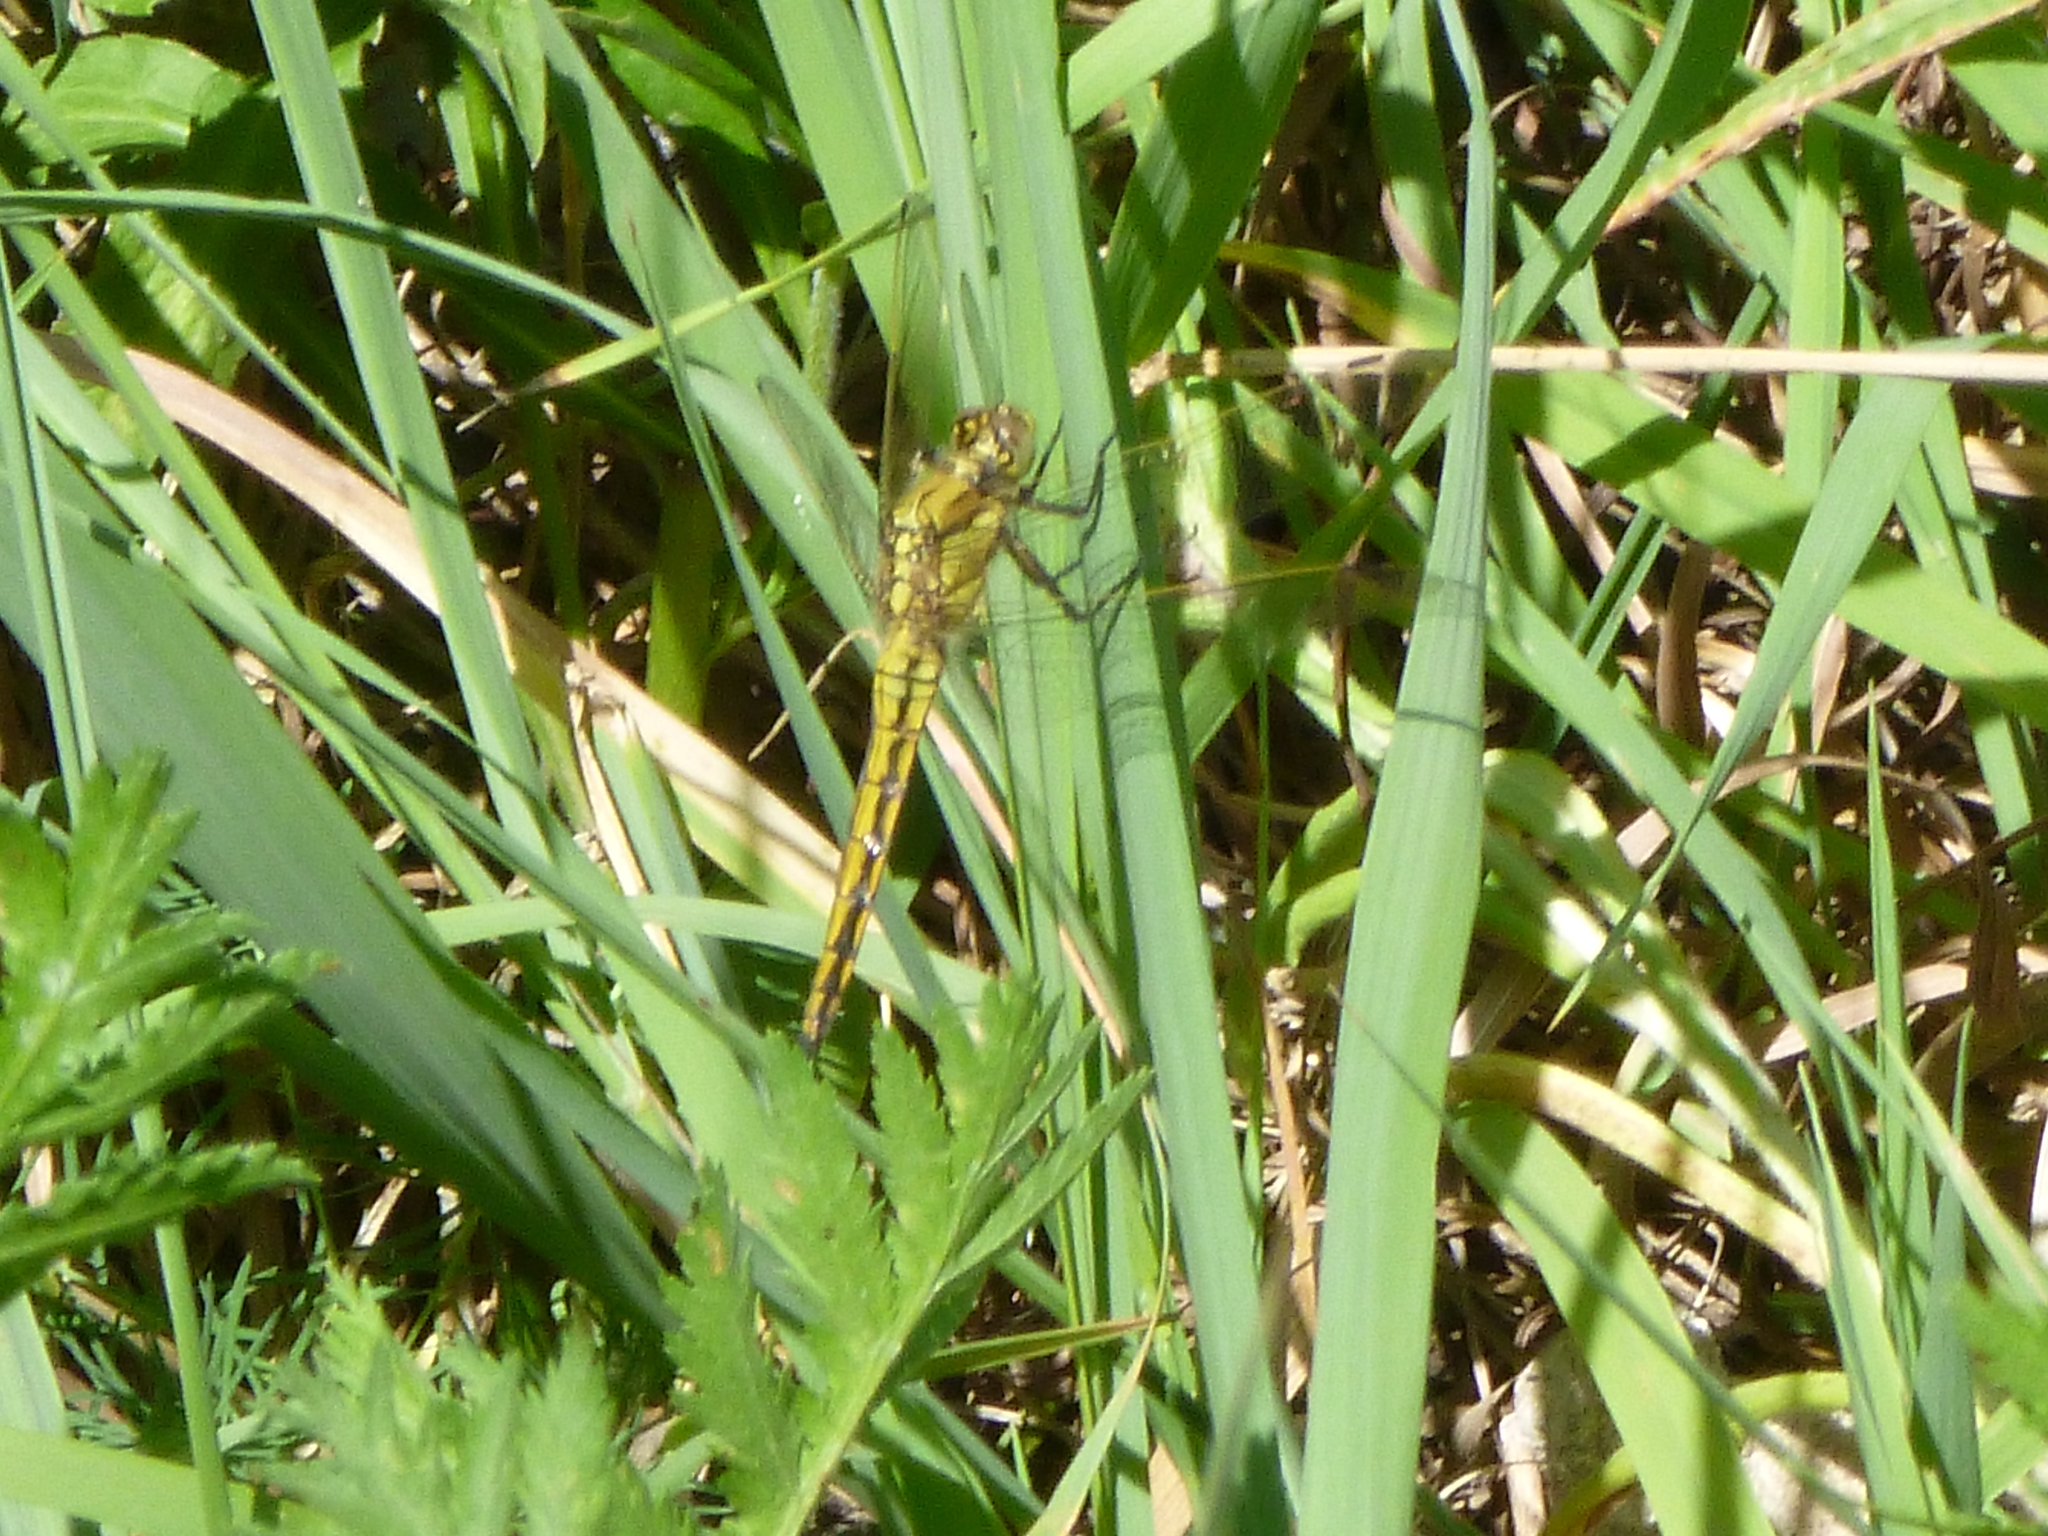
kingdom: Animalia
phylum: Arthropoda
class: Insecta
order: Odonata
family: Libellulidae
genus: Orthetrum
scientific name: Orthetrum cancellatum
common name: Black-tailed skimmer
